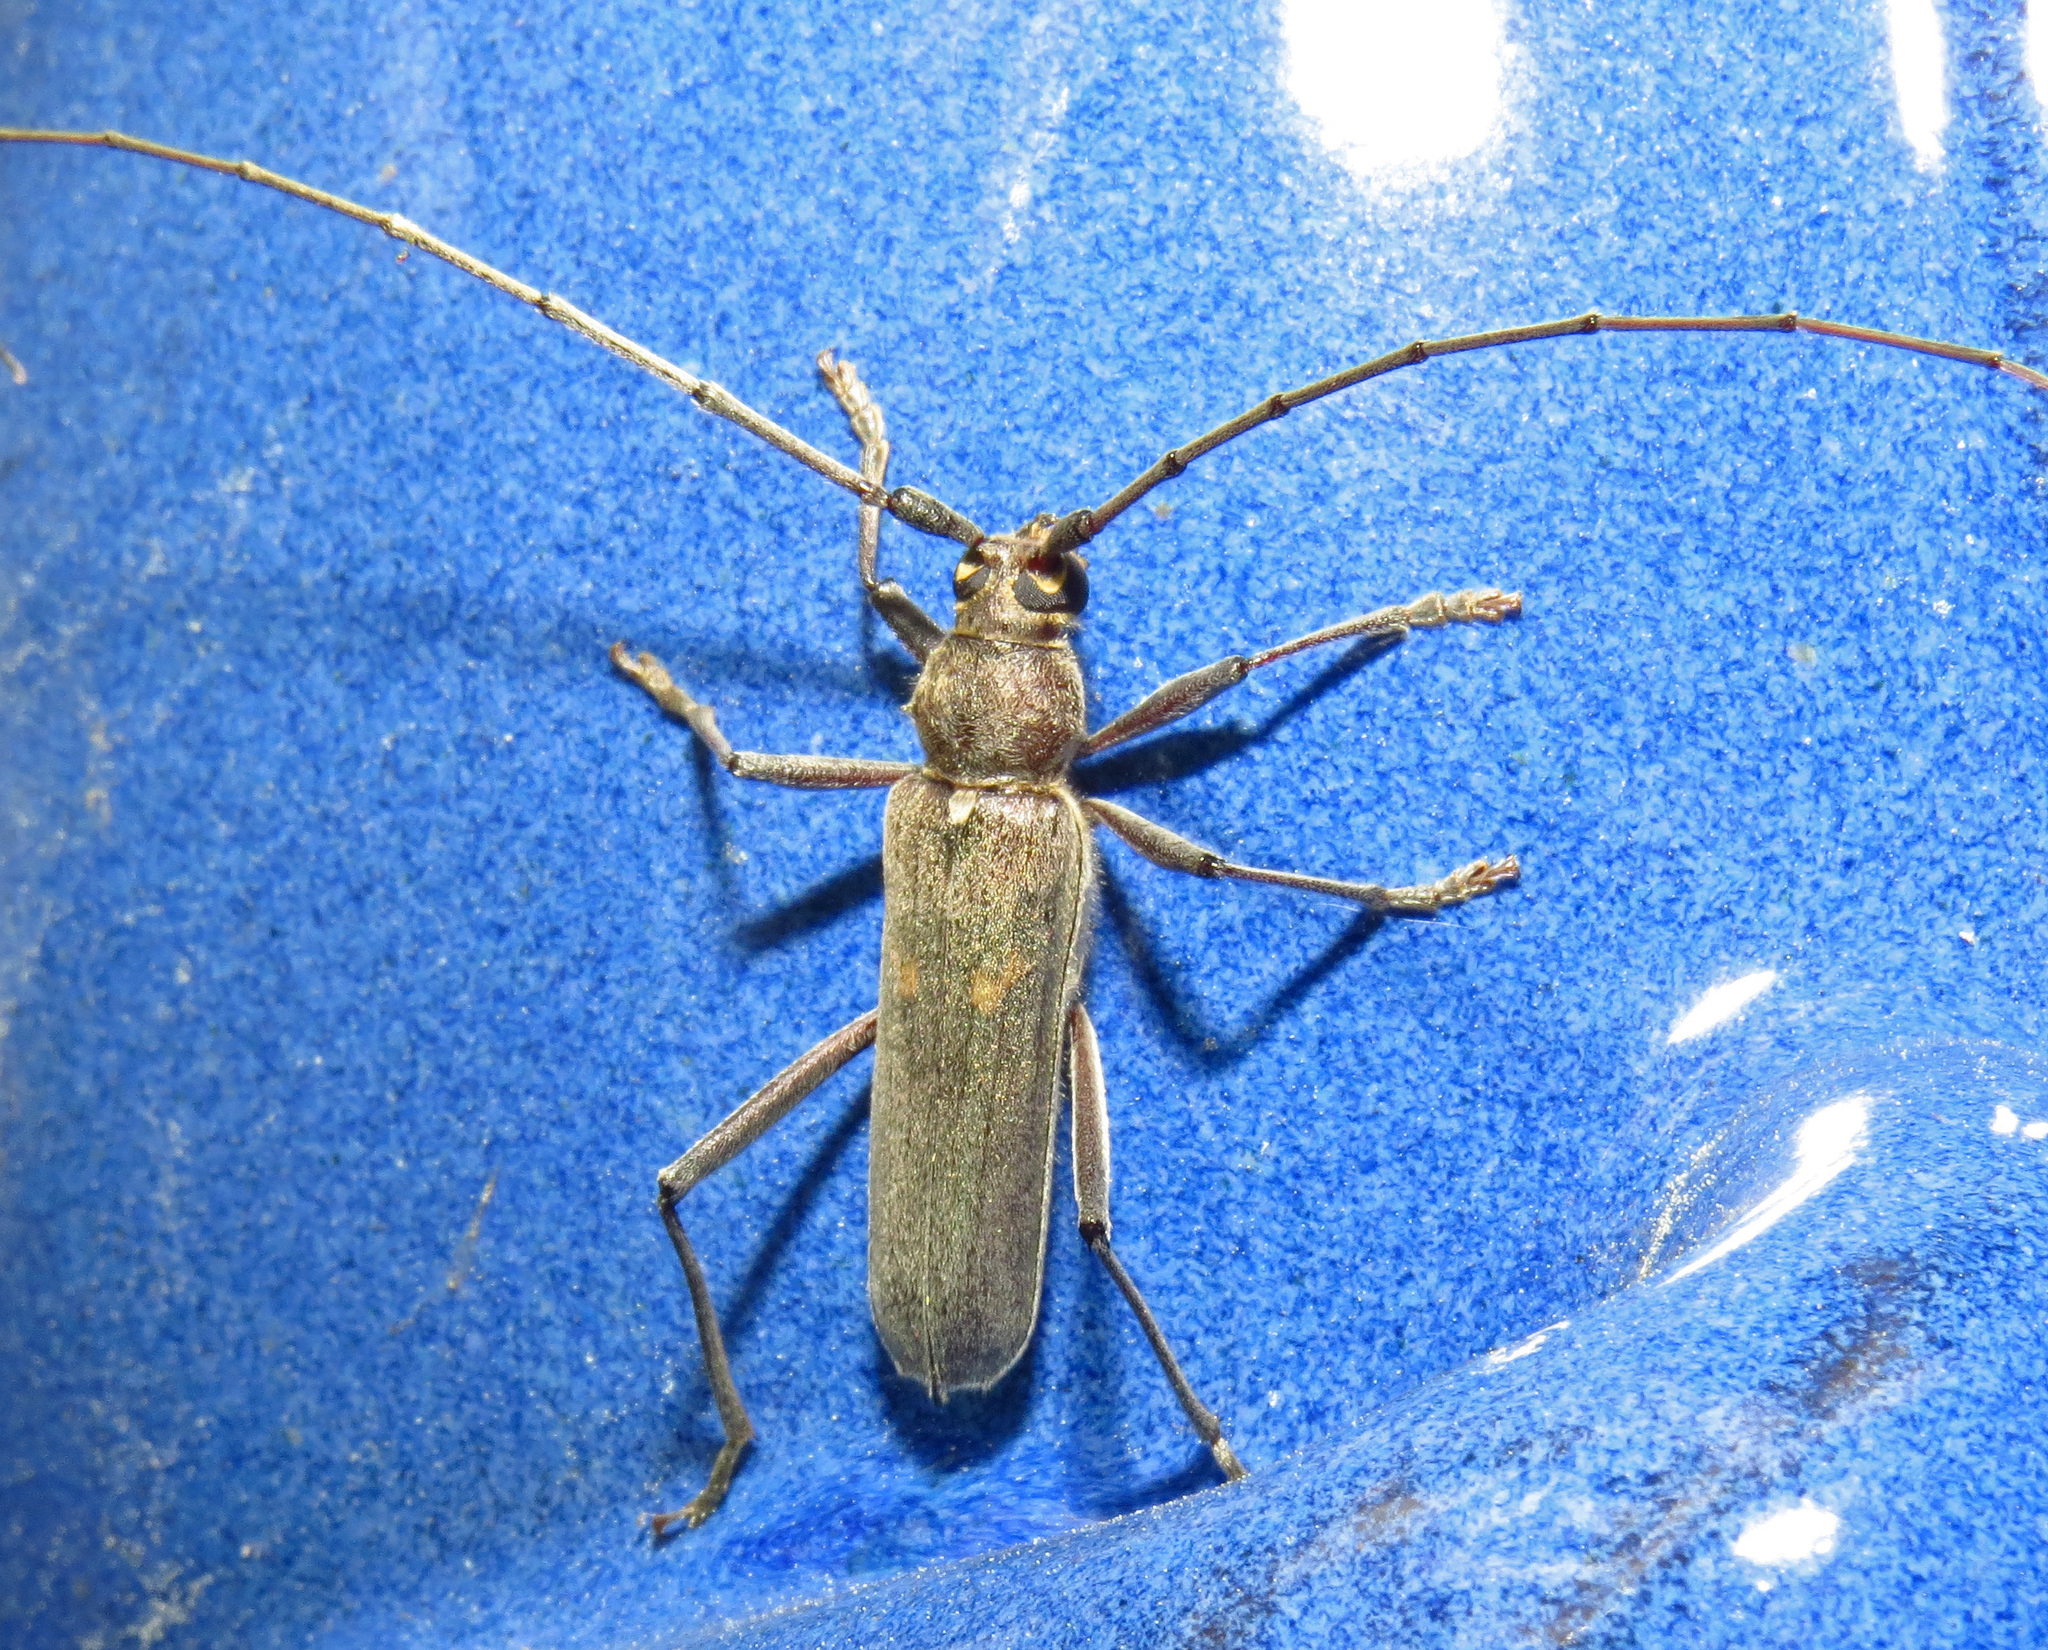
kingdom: Animalia
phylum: Arthropoda
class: Insecta
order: Coleoptera
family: Cerambycidae
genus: Knulliana
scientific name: Knulliana cincta
